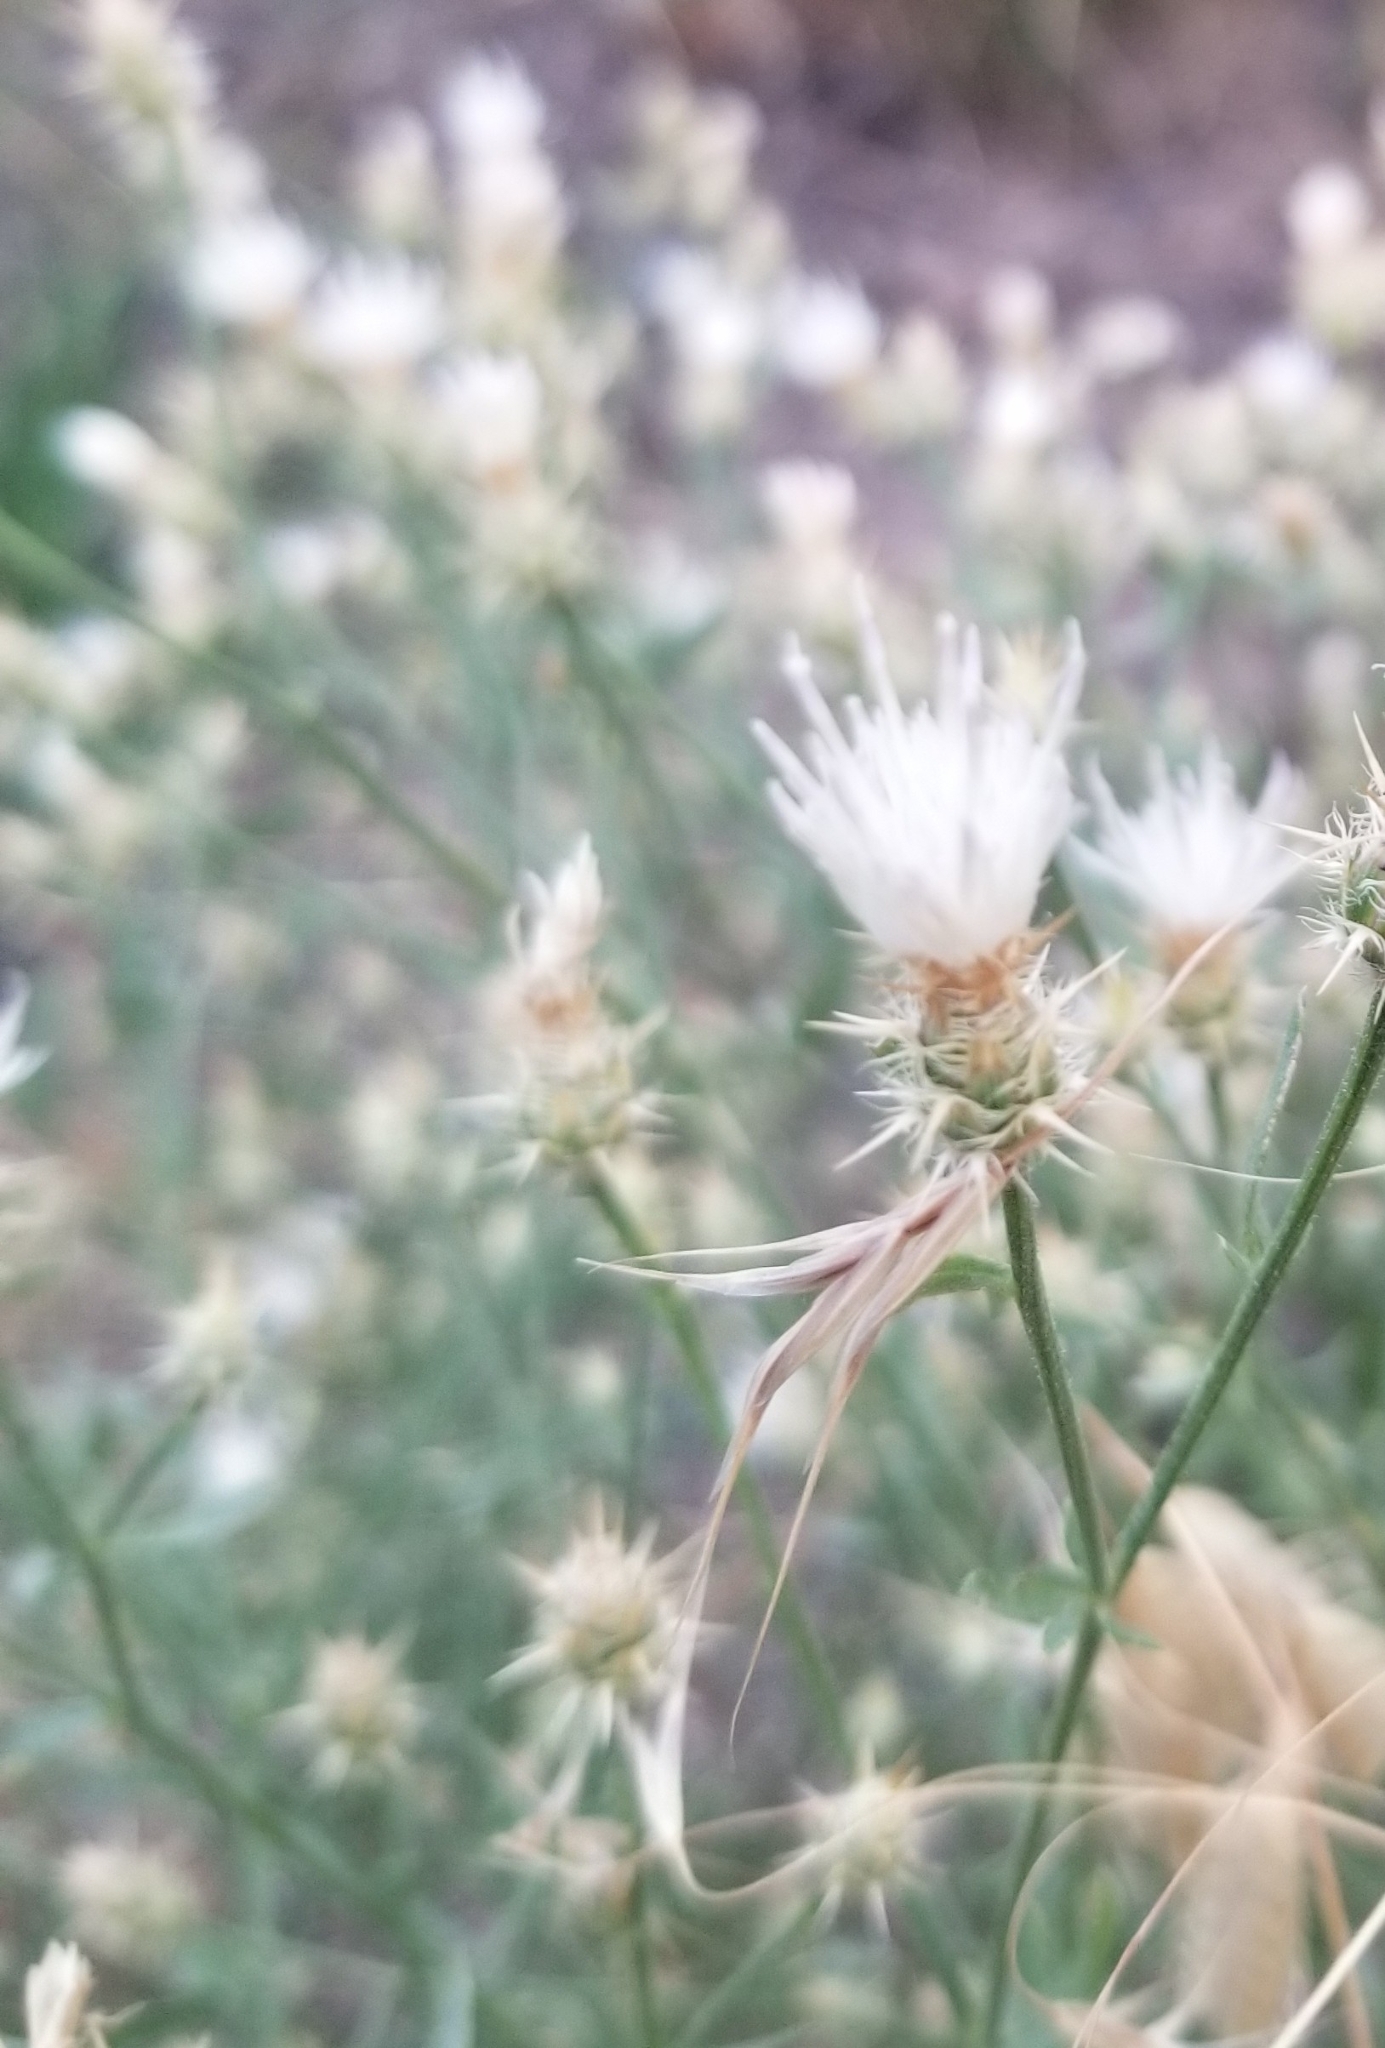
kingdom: Plantae
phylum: Tracheophyta
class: Magnoliopsida
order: Asterales
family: Asteraceae
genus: Centaurea
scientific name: Centaurea diffusa
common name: Diffuse knapweed
